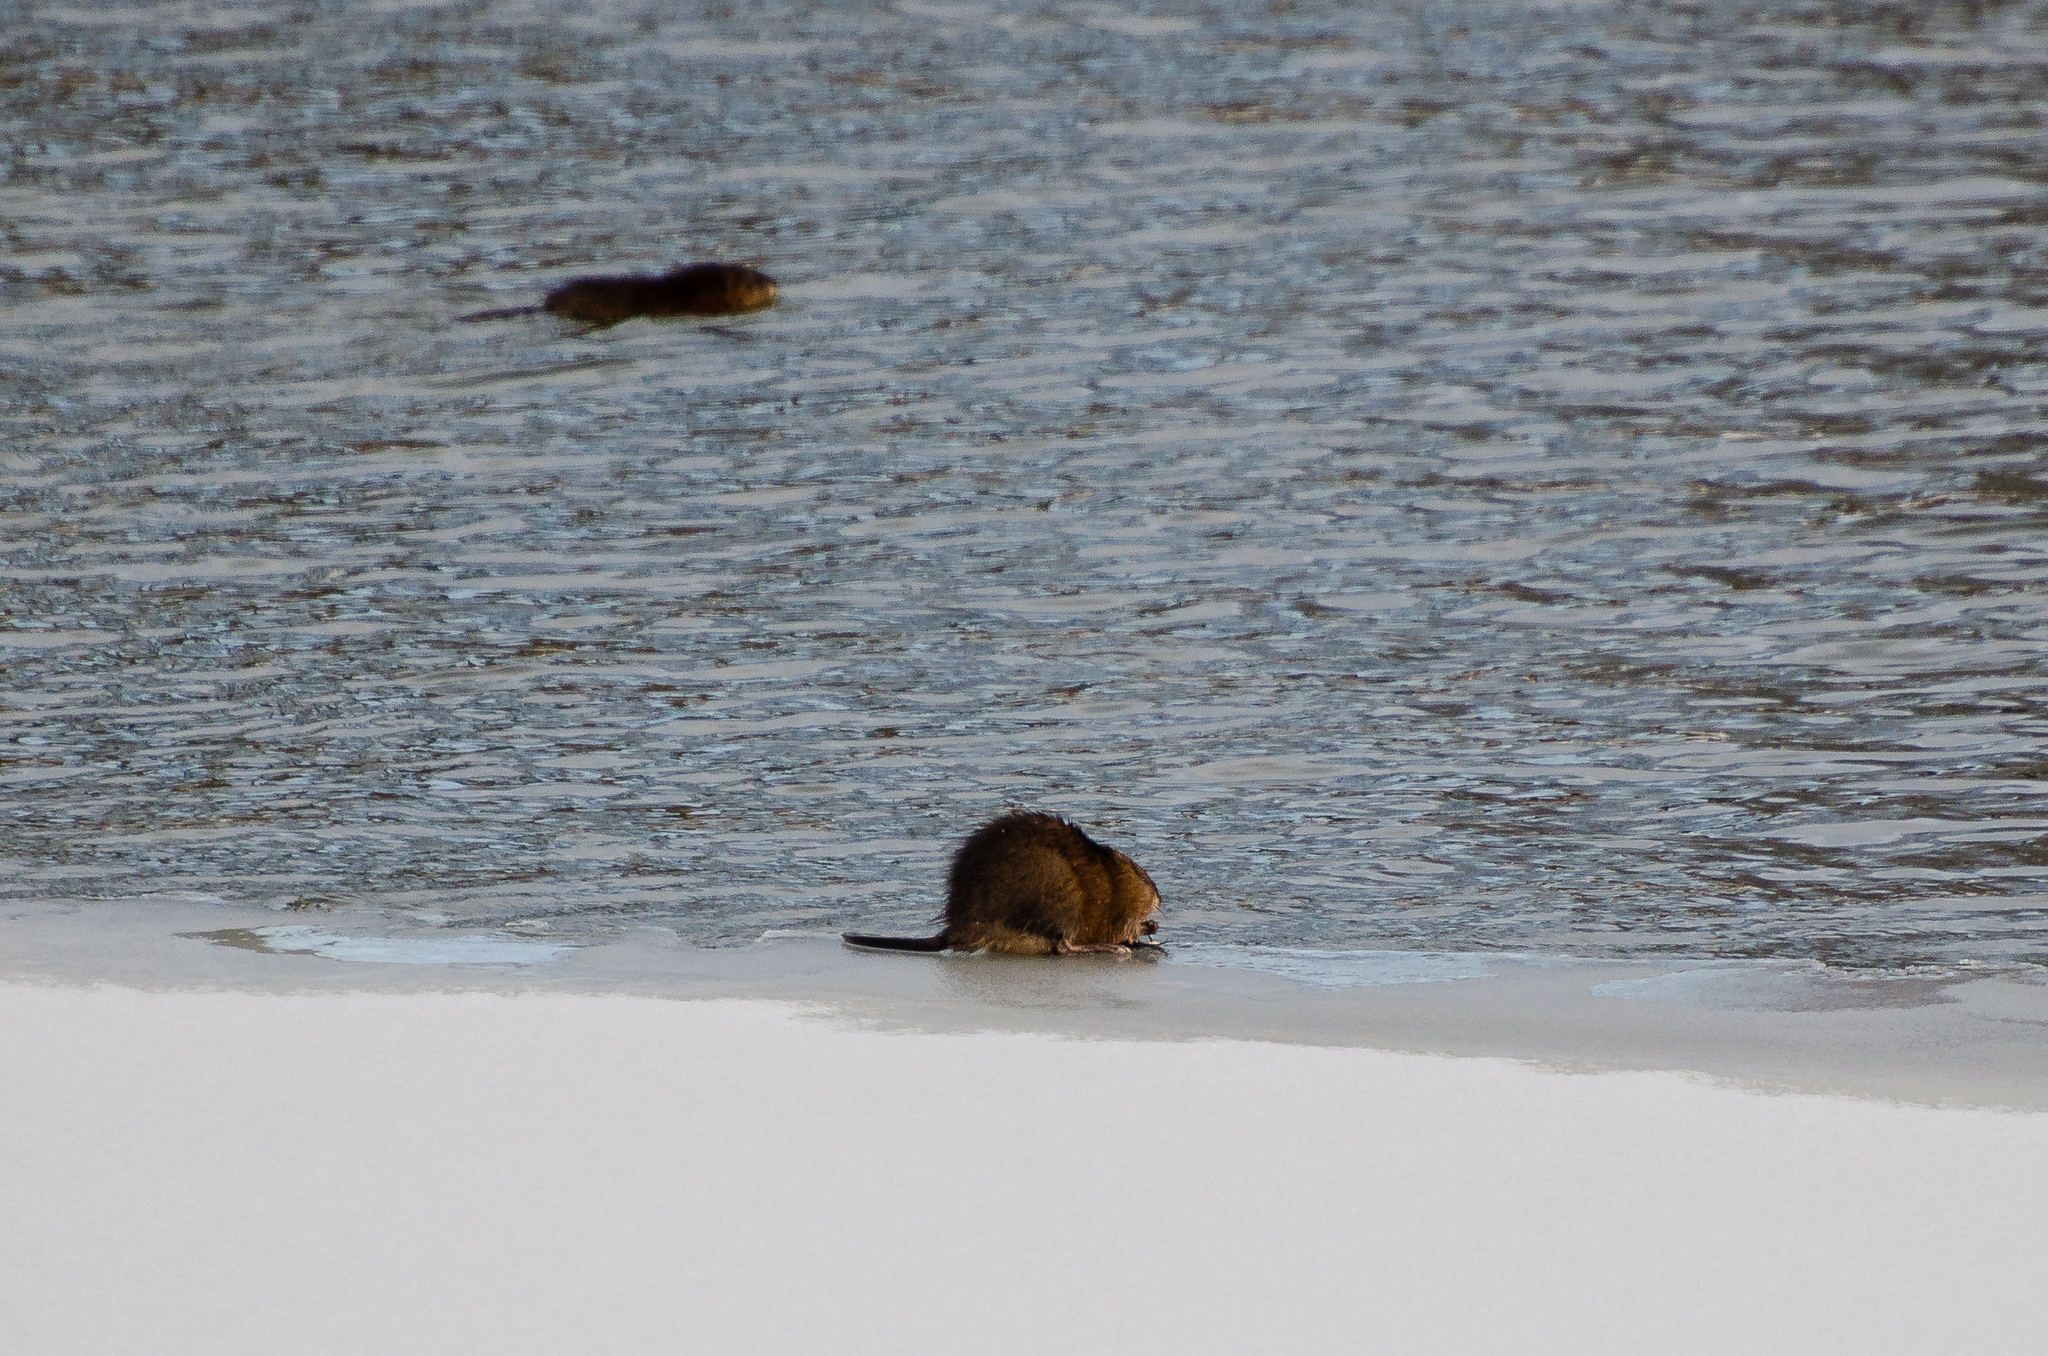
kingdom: Animalia
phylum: Chordata
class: Mammalia
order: Rodentia
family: Cricetidae
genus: Ondatra
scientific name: Ondatra zibethicus
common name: Muskrat
